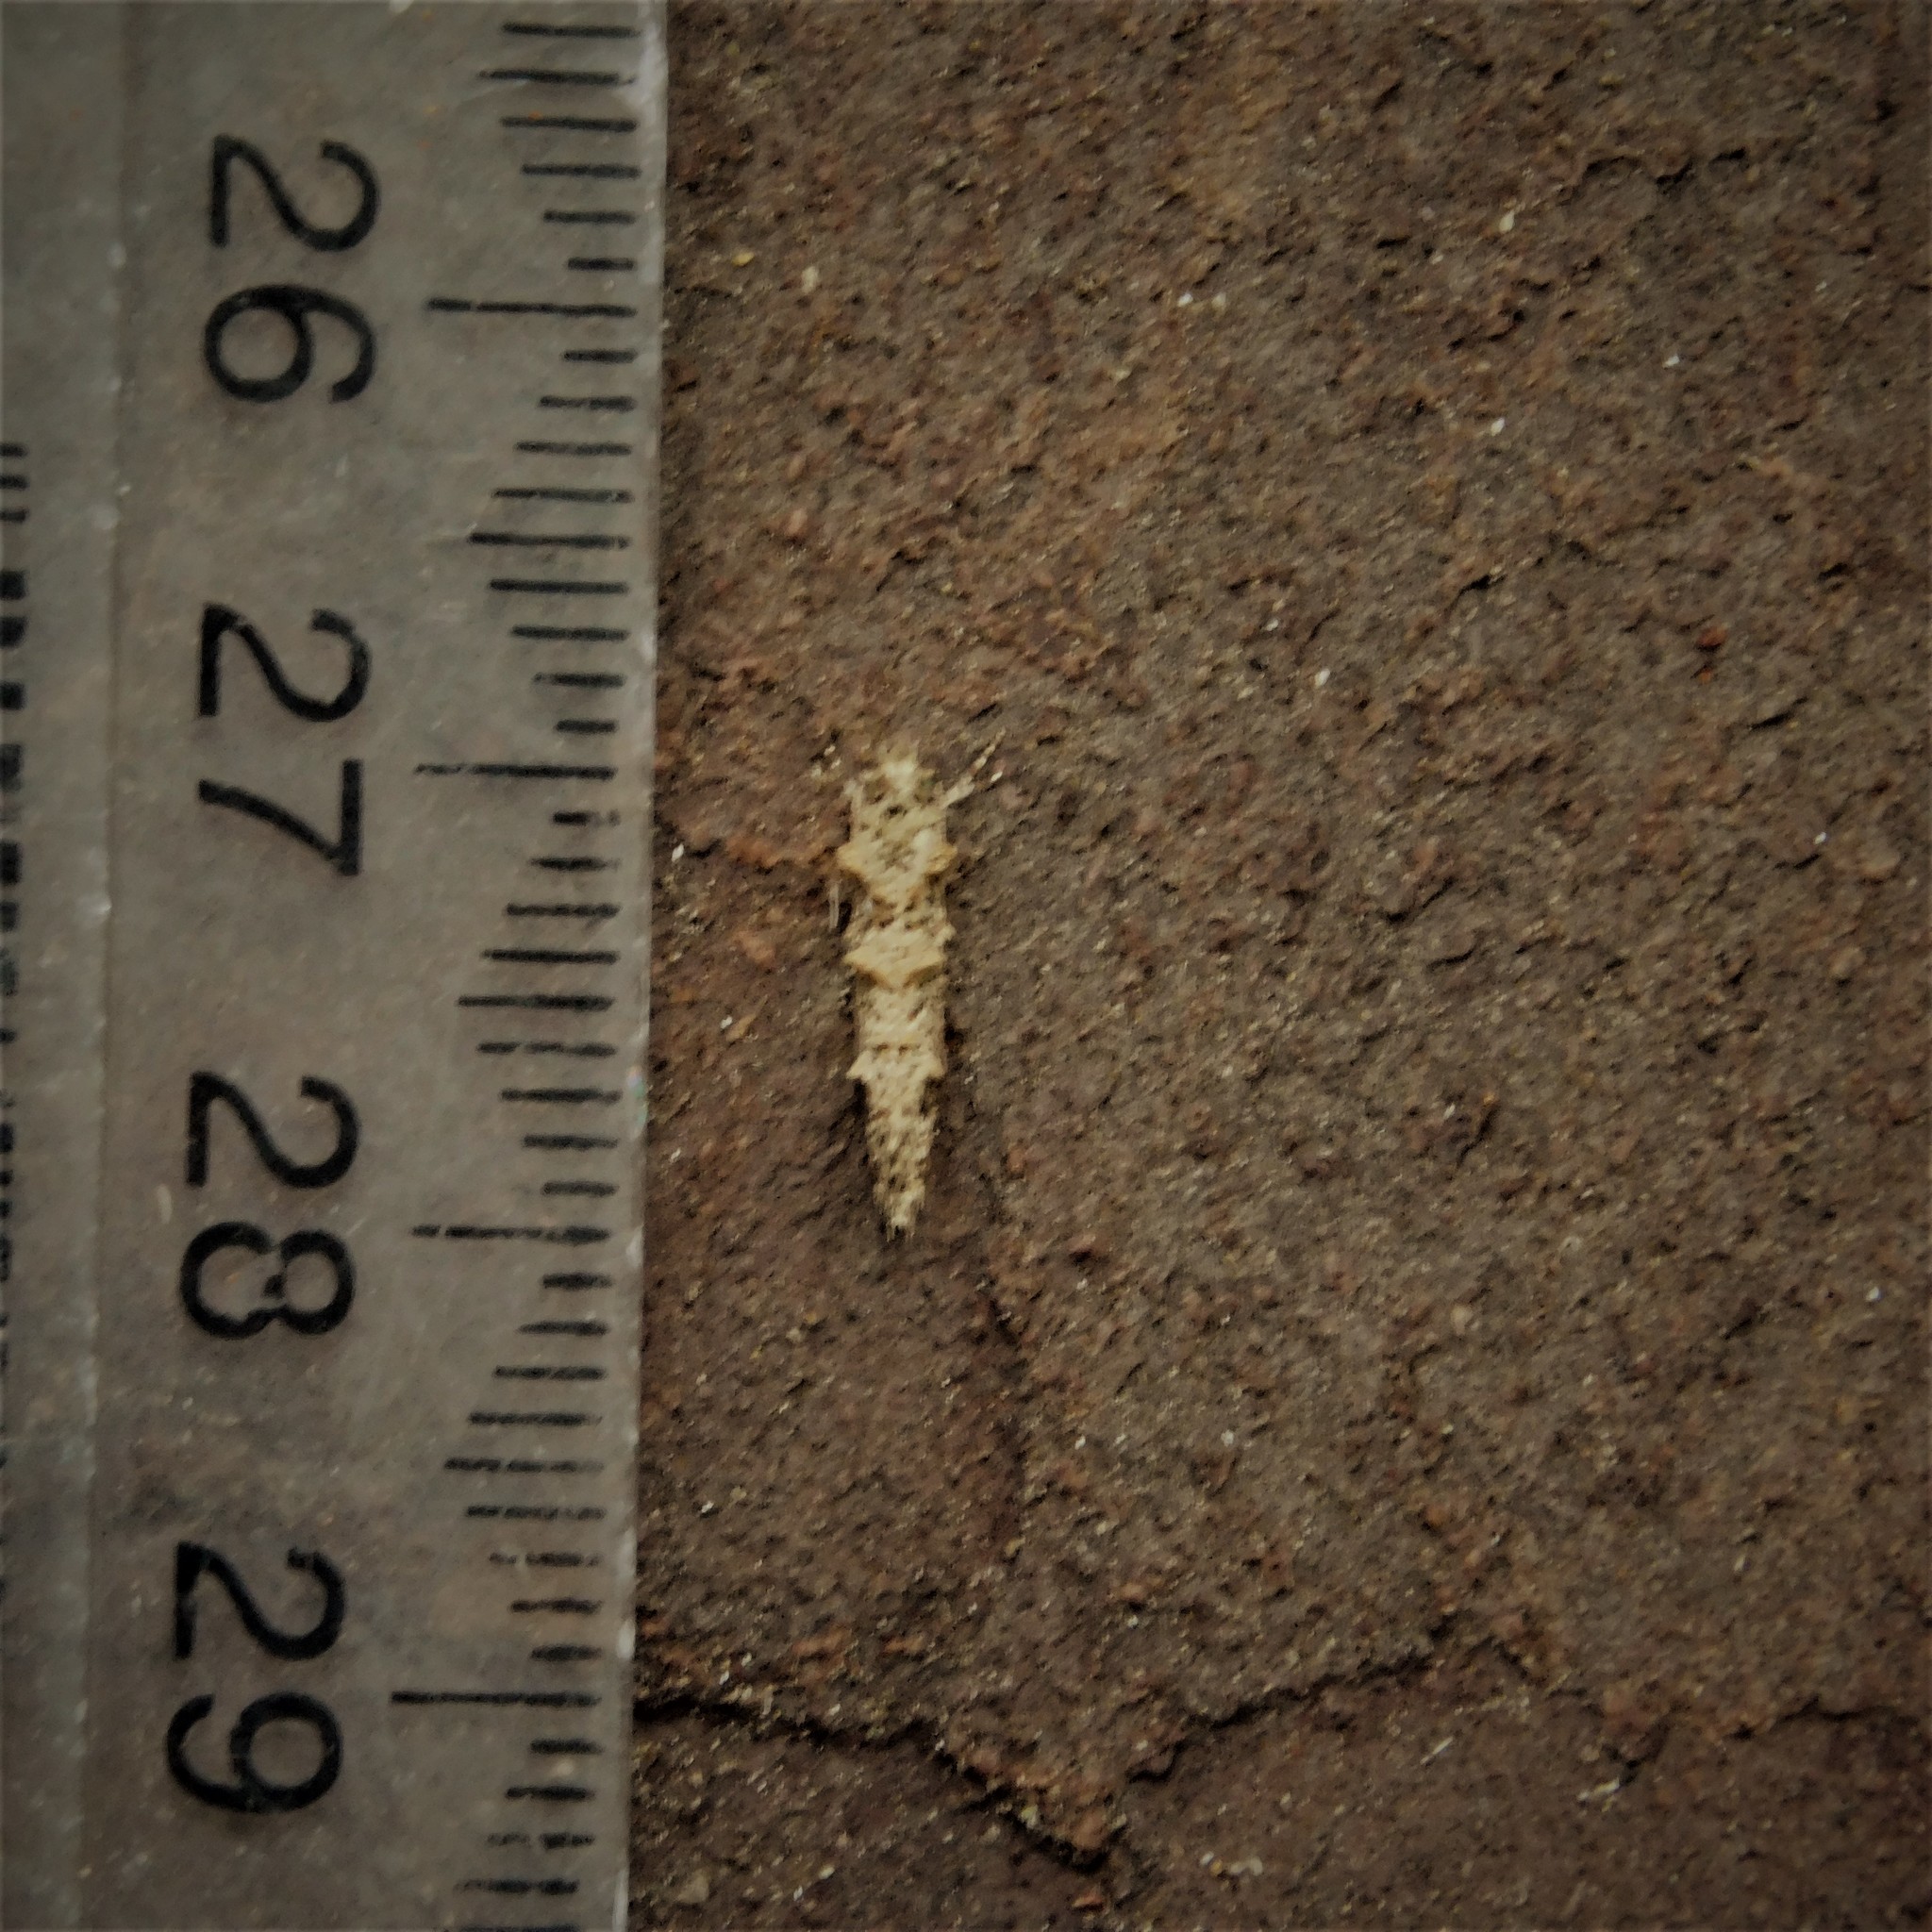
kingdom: Animalia
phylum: Arthropoda
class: Insecta
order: Lepidoptera
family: Tineidae
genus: Lysiphragma
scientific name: Lysiphragma epixyla
